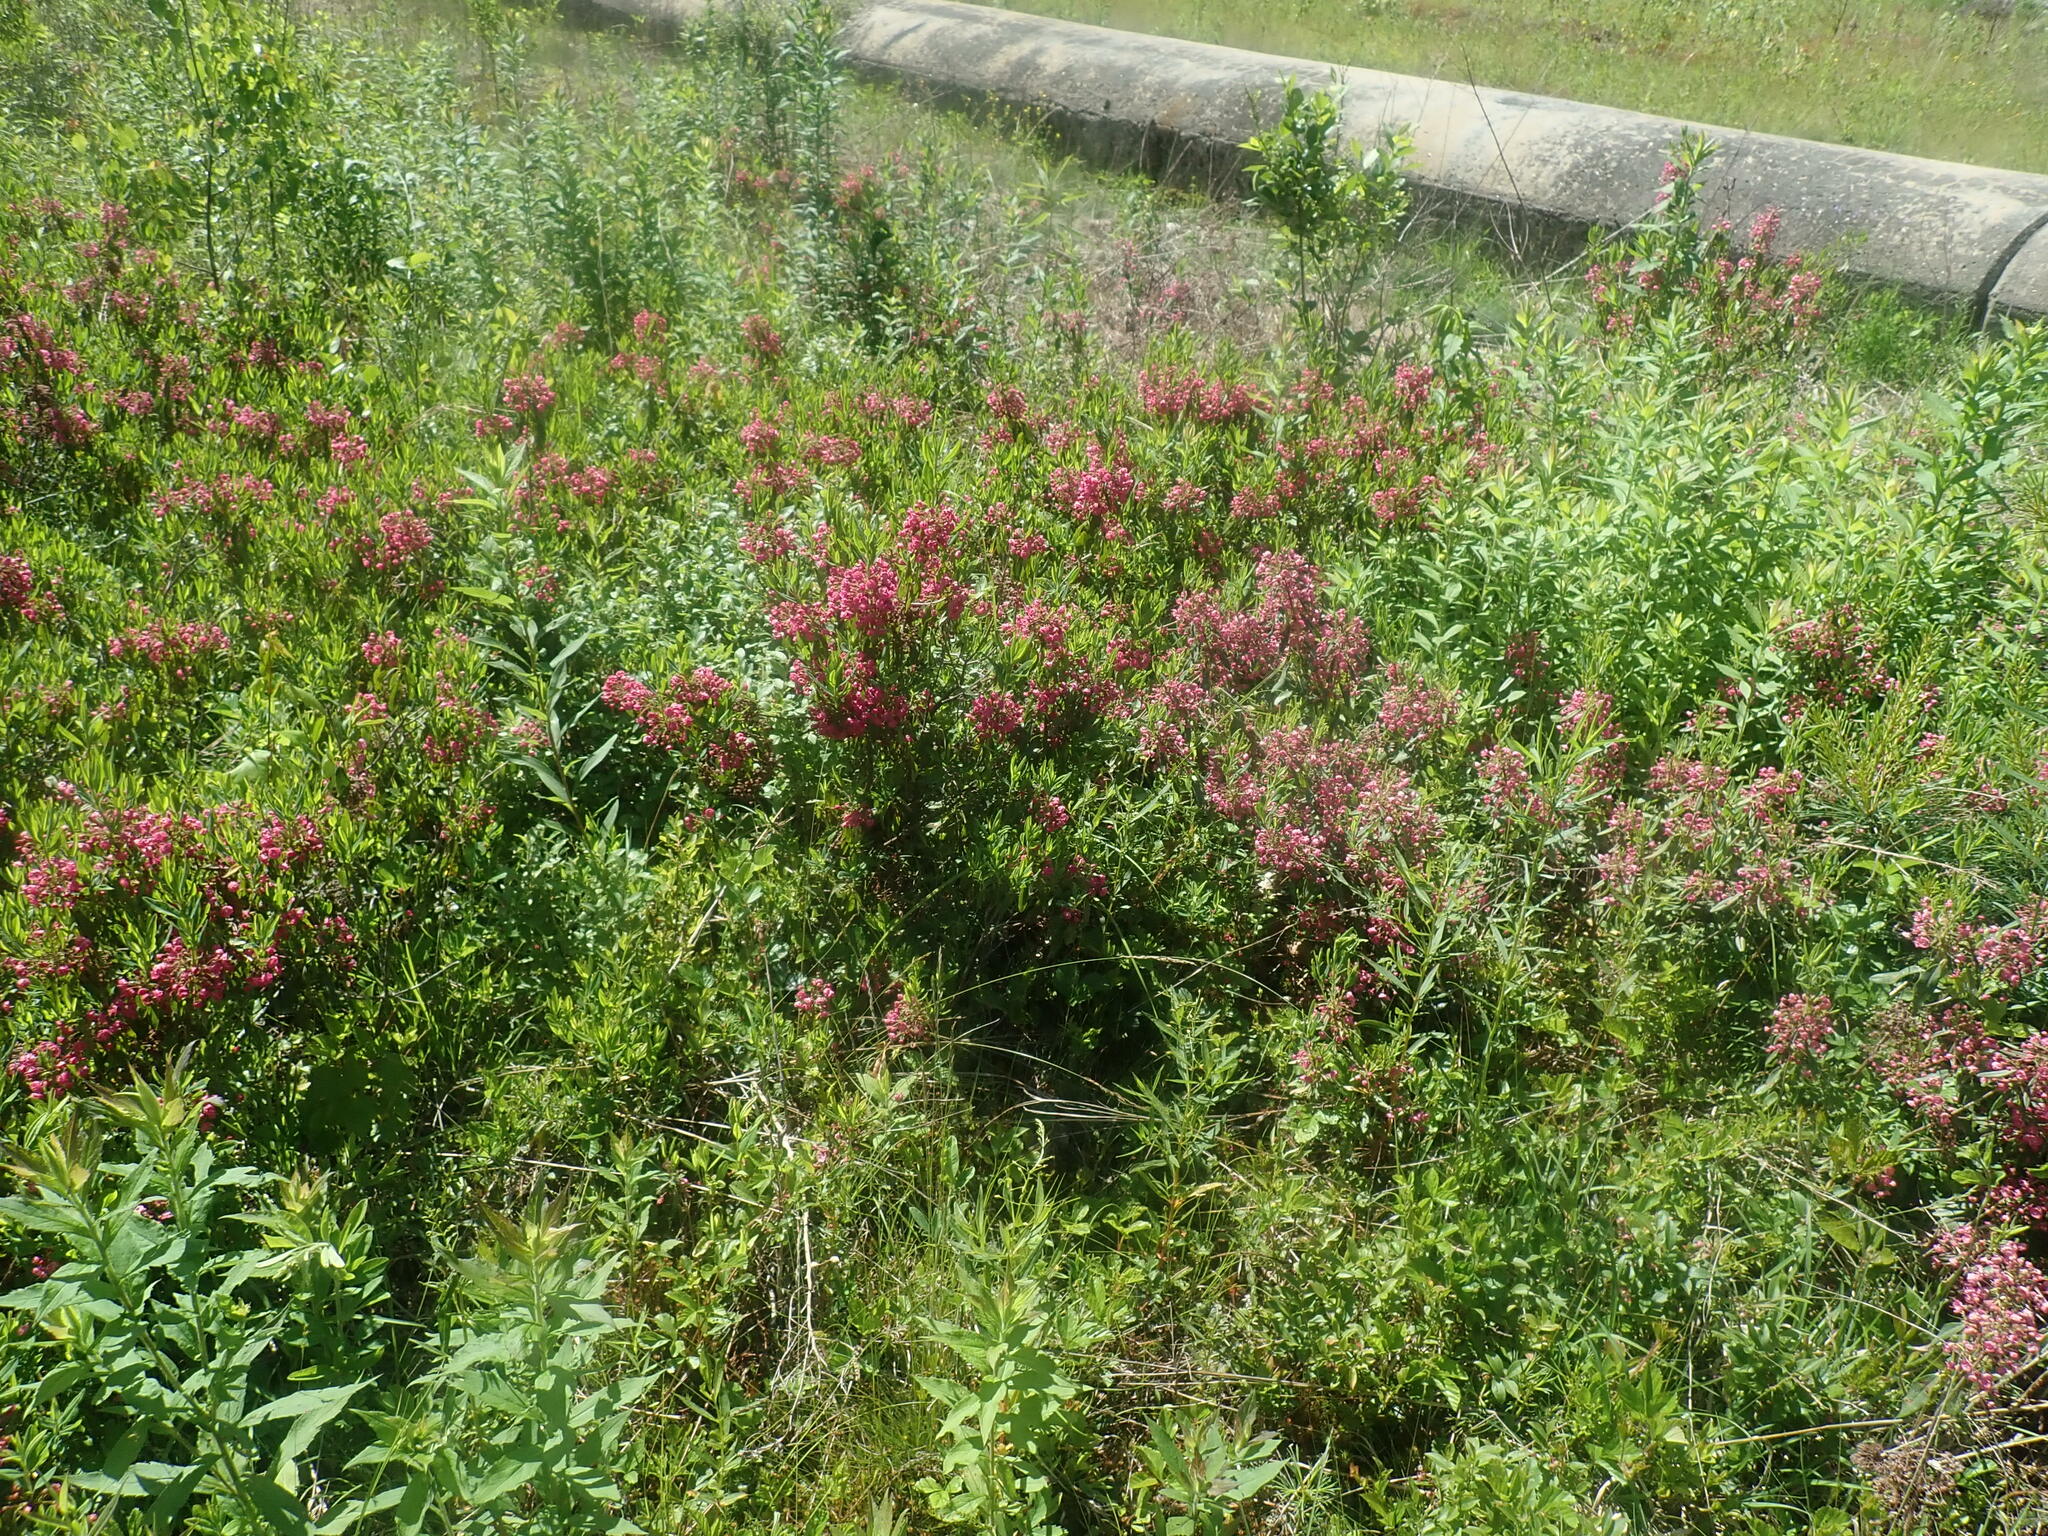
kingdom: Plantae
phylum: Tracheophyta
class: Magnoliopsida
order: Ericales
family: Ericaceae
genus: Kalmia
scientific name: Kalmia angustifolia
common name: Sheep-laurel
